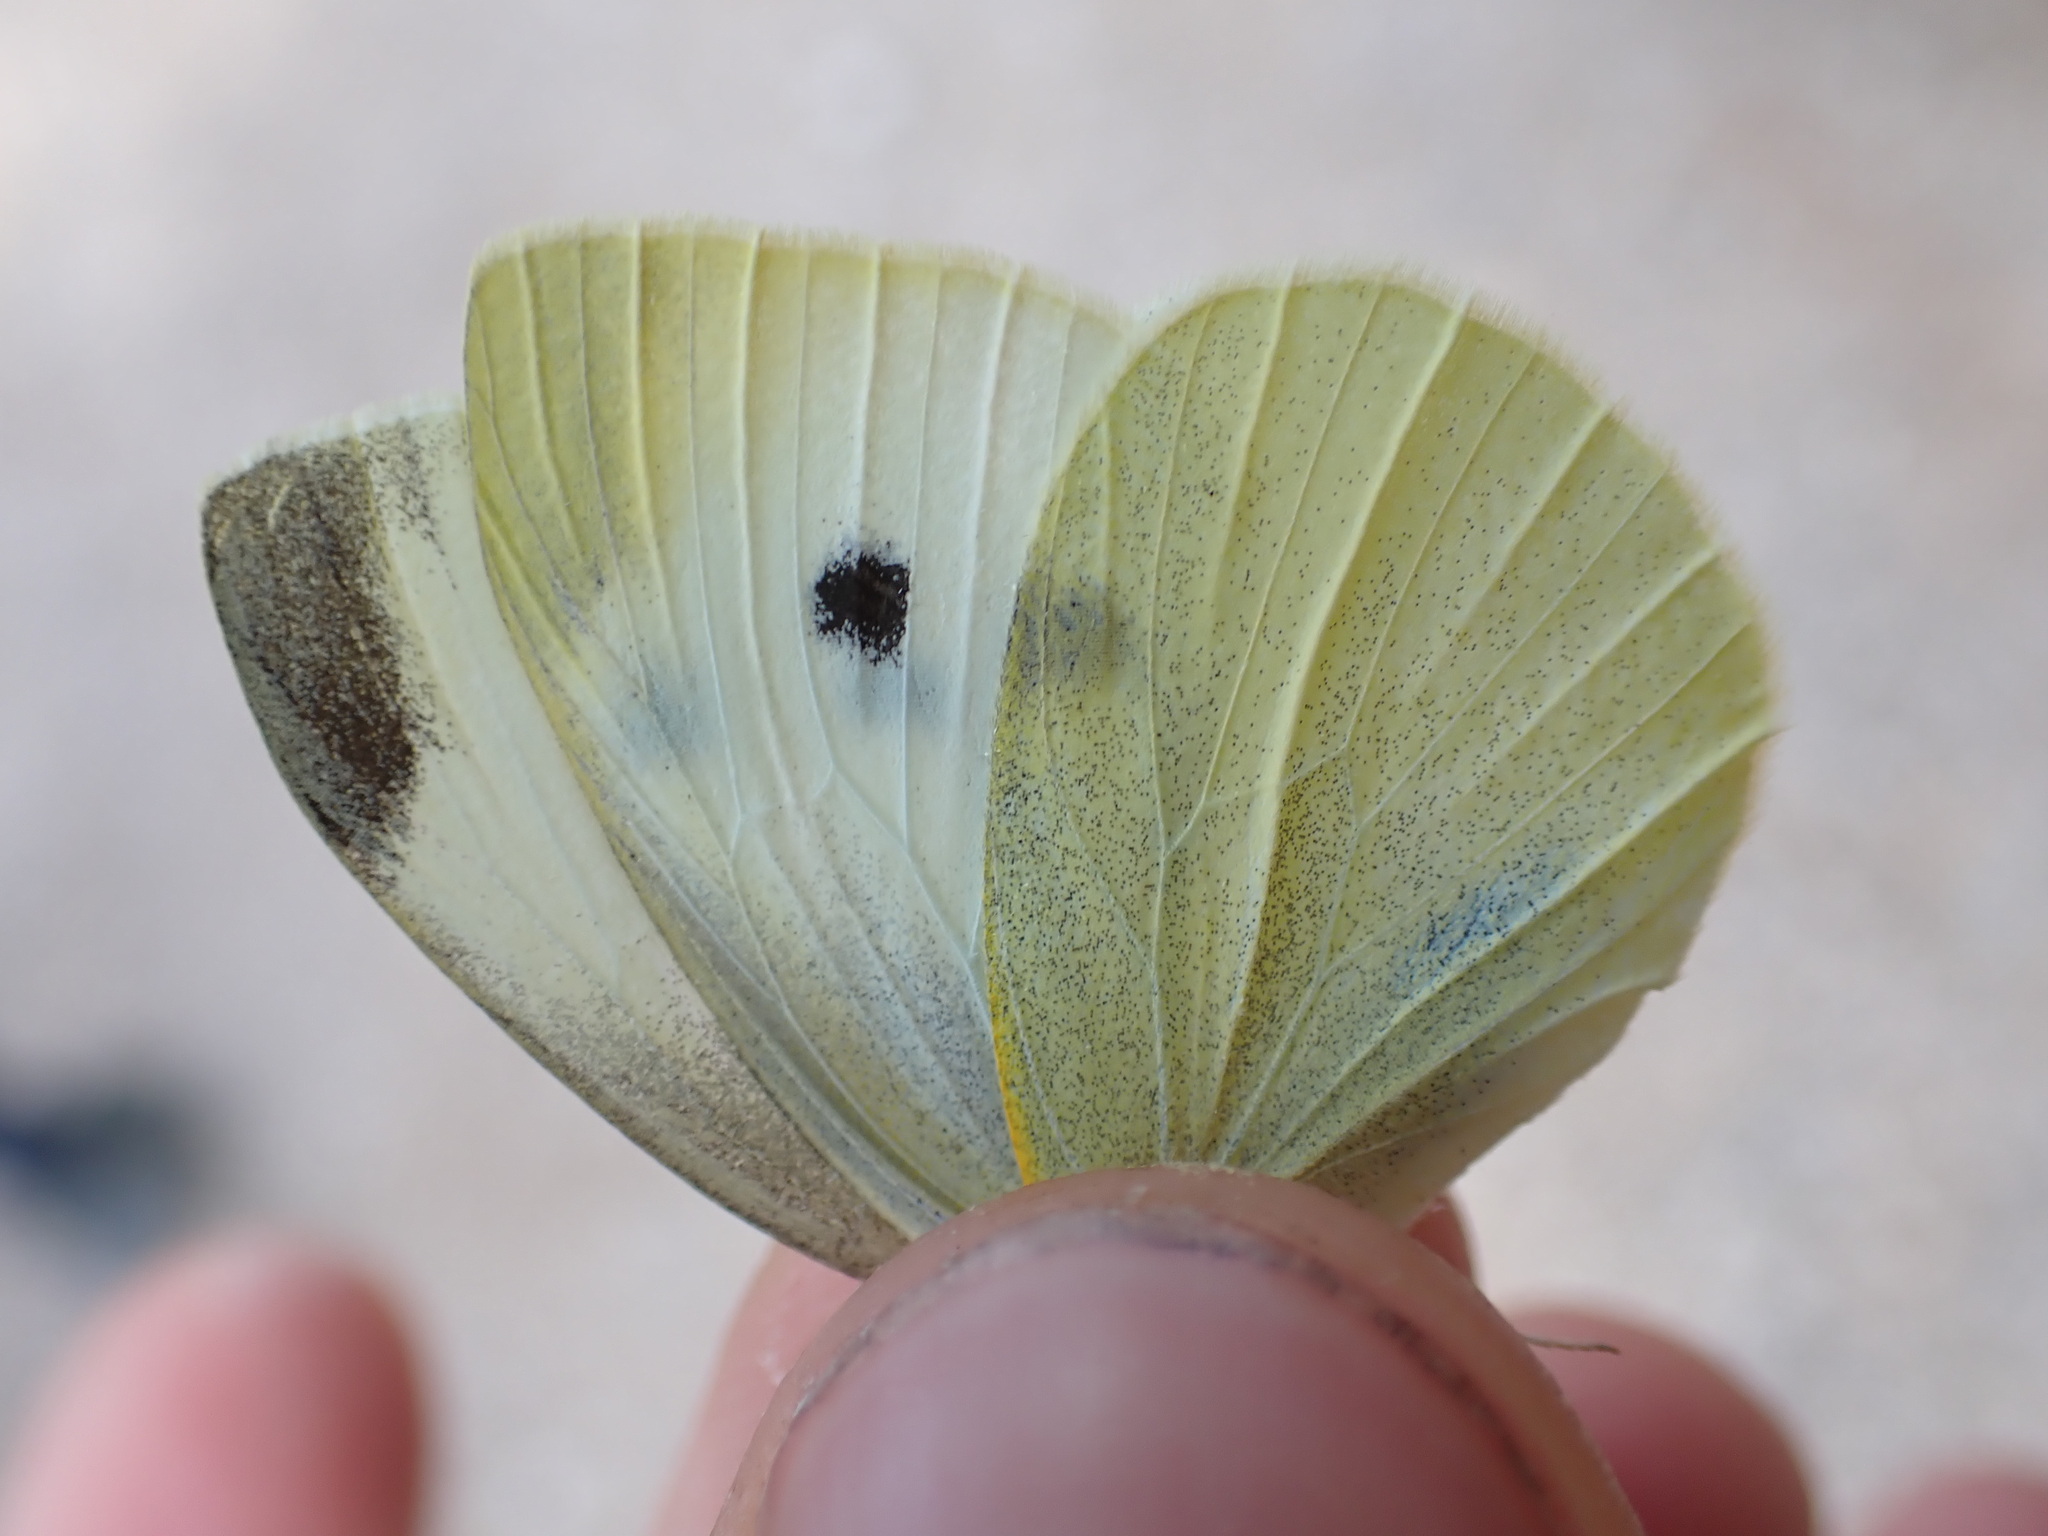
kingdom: Animalia
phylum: Arthropoda
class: Insecta
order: Lepidoptera
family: Pieridae
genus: Pieris
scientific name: Pieris rapae
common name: Small white
